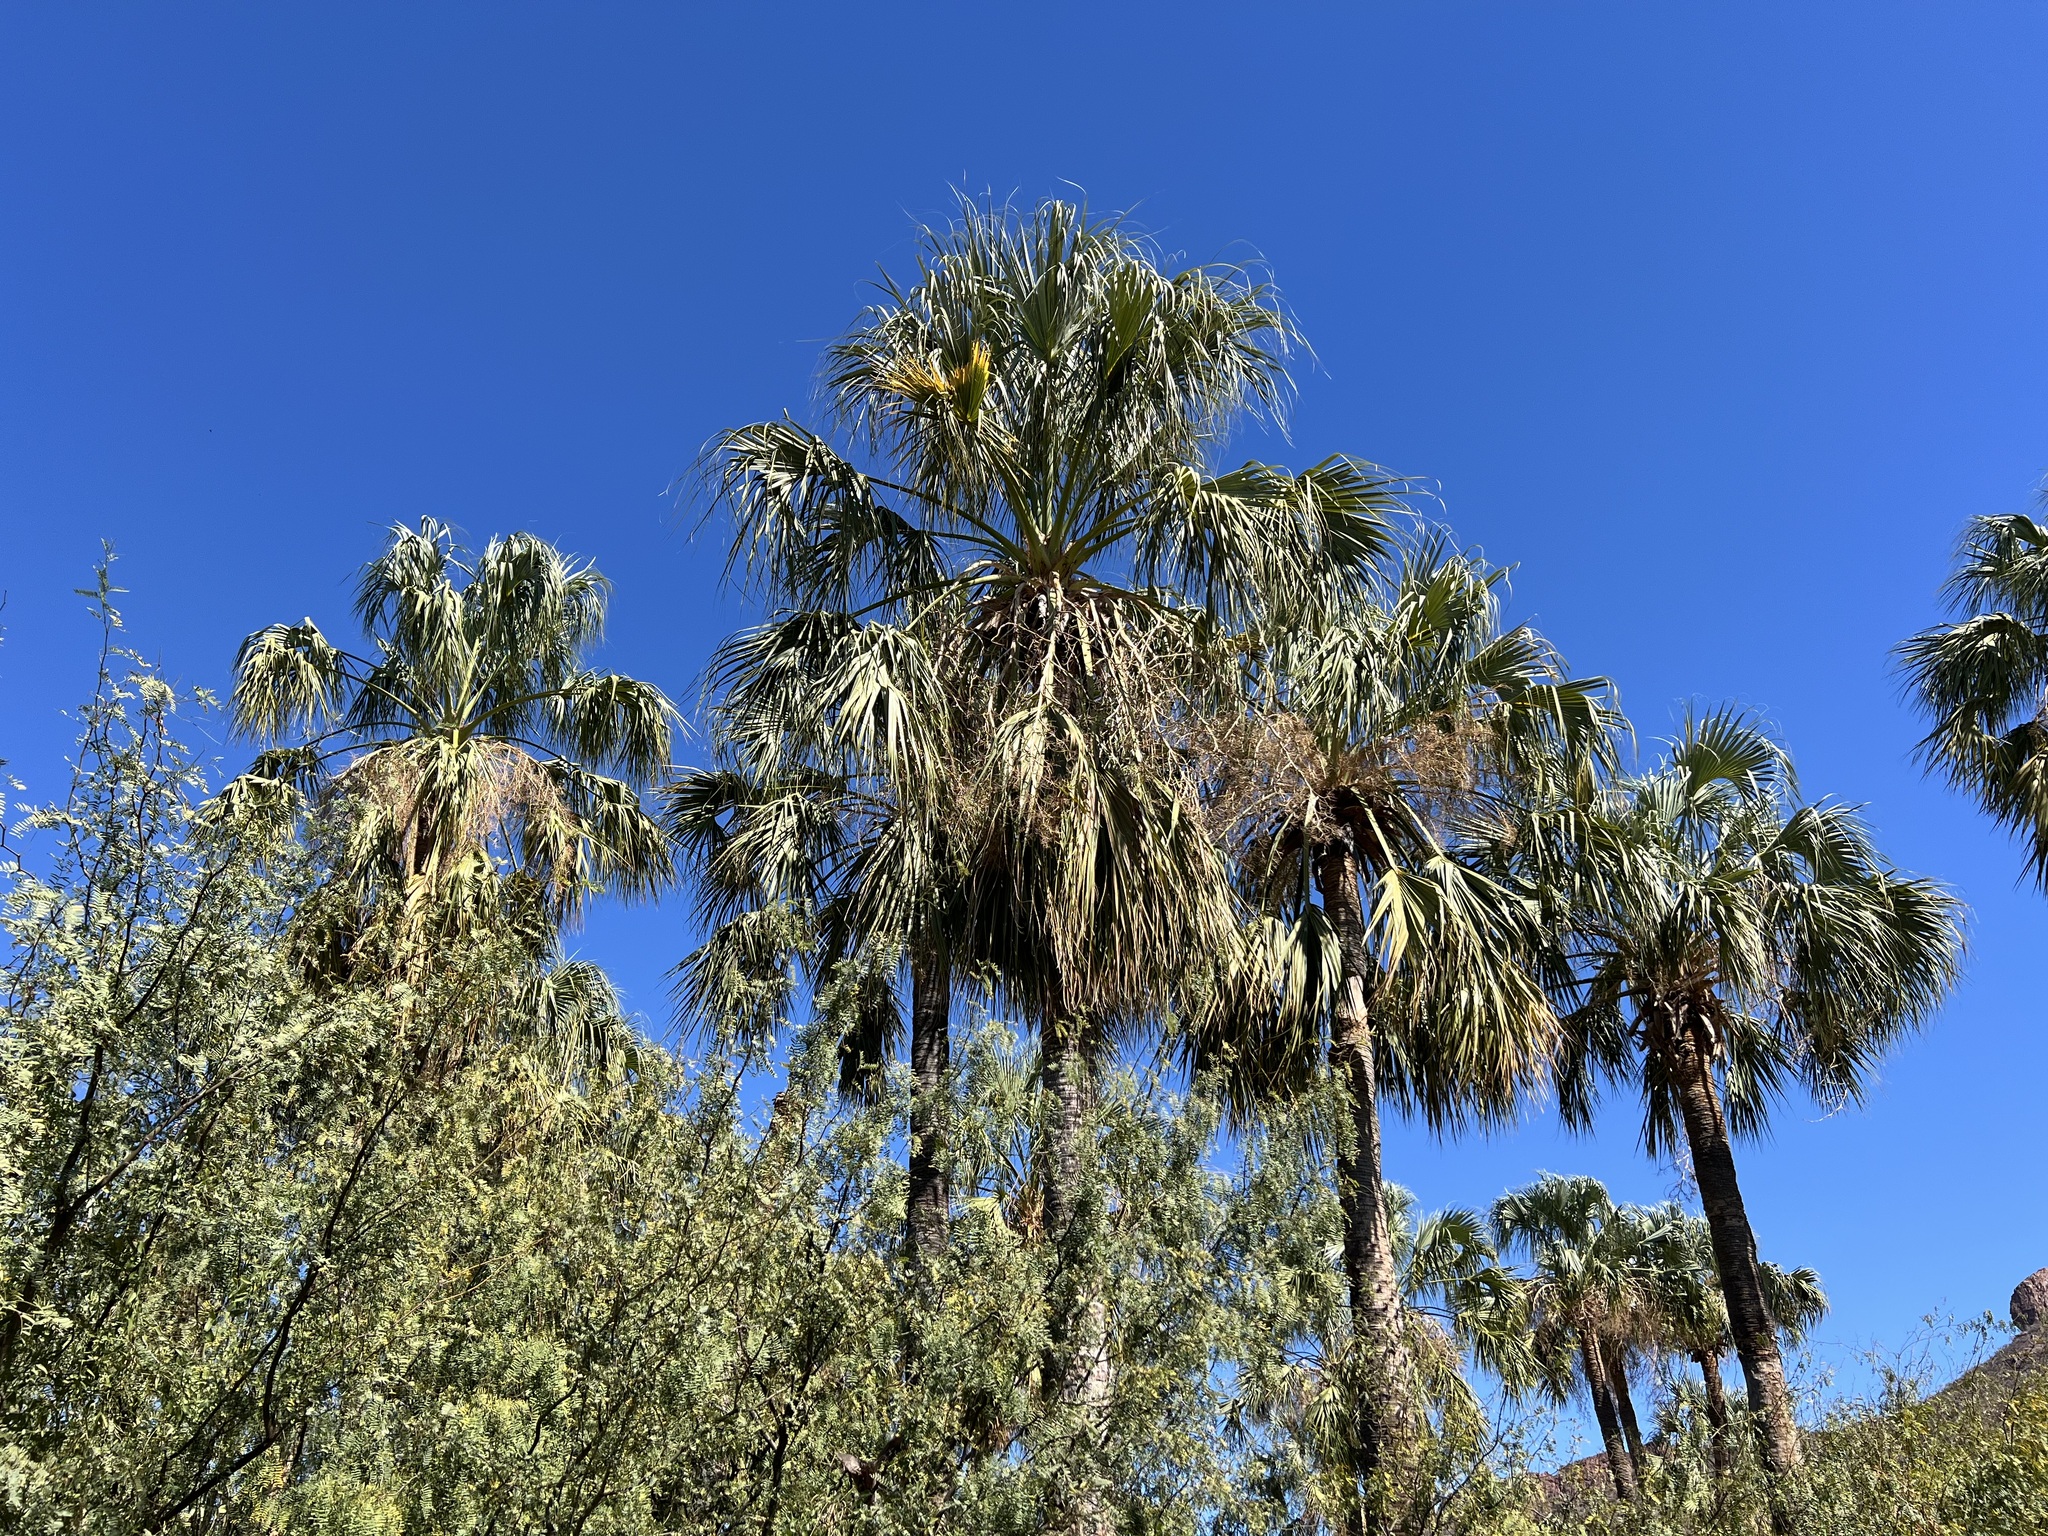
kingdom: Plantae
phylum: Tracheophyta
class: Liliopsida
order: Arecales
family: Arecaceae
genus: Sabal
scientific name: Sabal uresana
